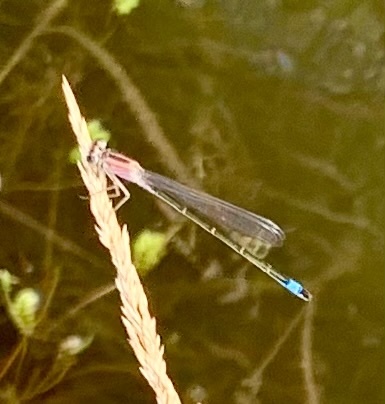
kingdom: Animalia
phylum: Arthropoda
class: Insecta
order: Odonata
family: Coenagrionidae
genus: Ischnura
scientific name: Ischnura elegans
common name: Blue-tailed damselfly
